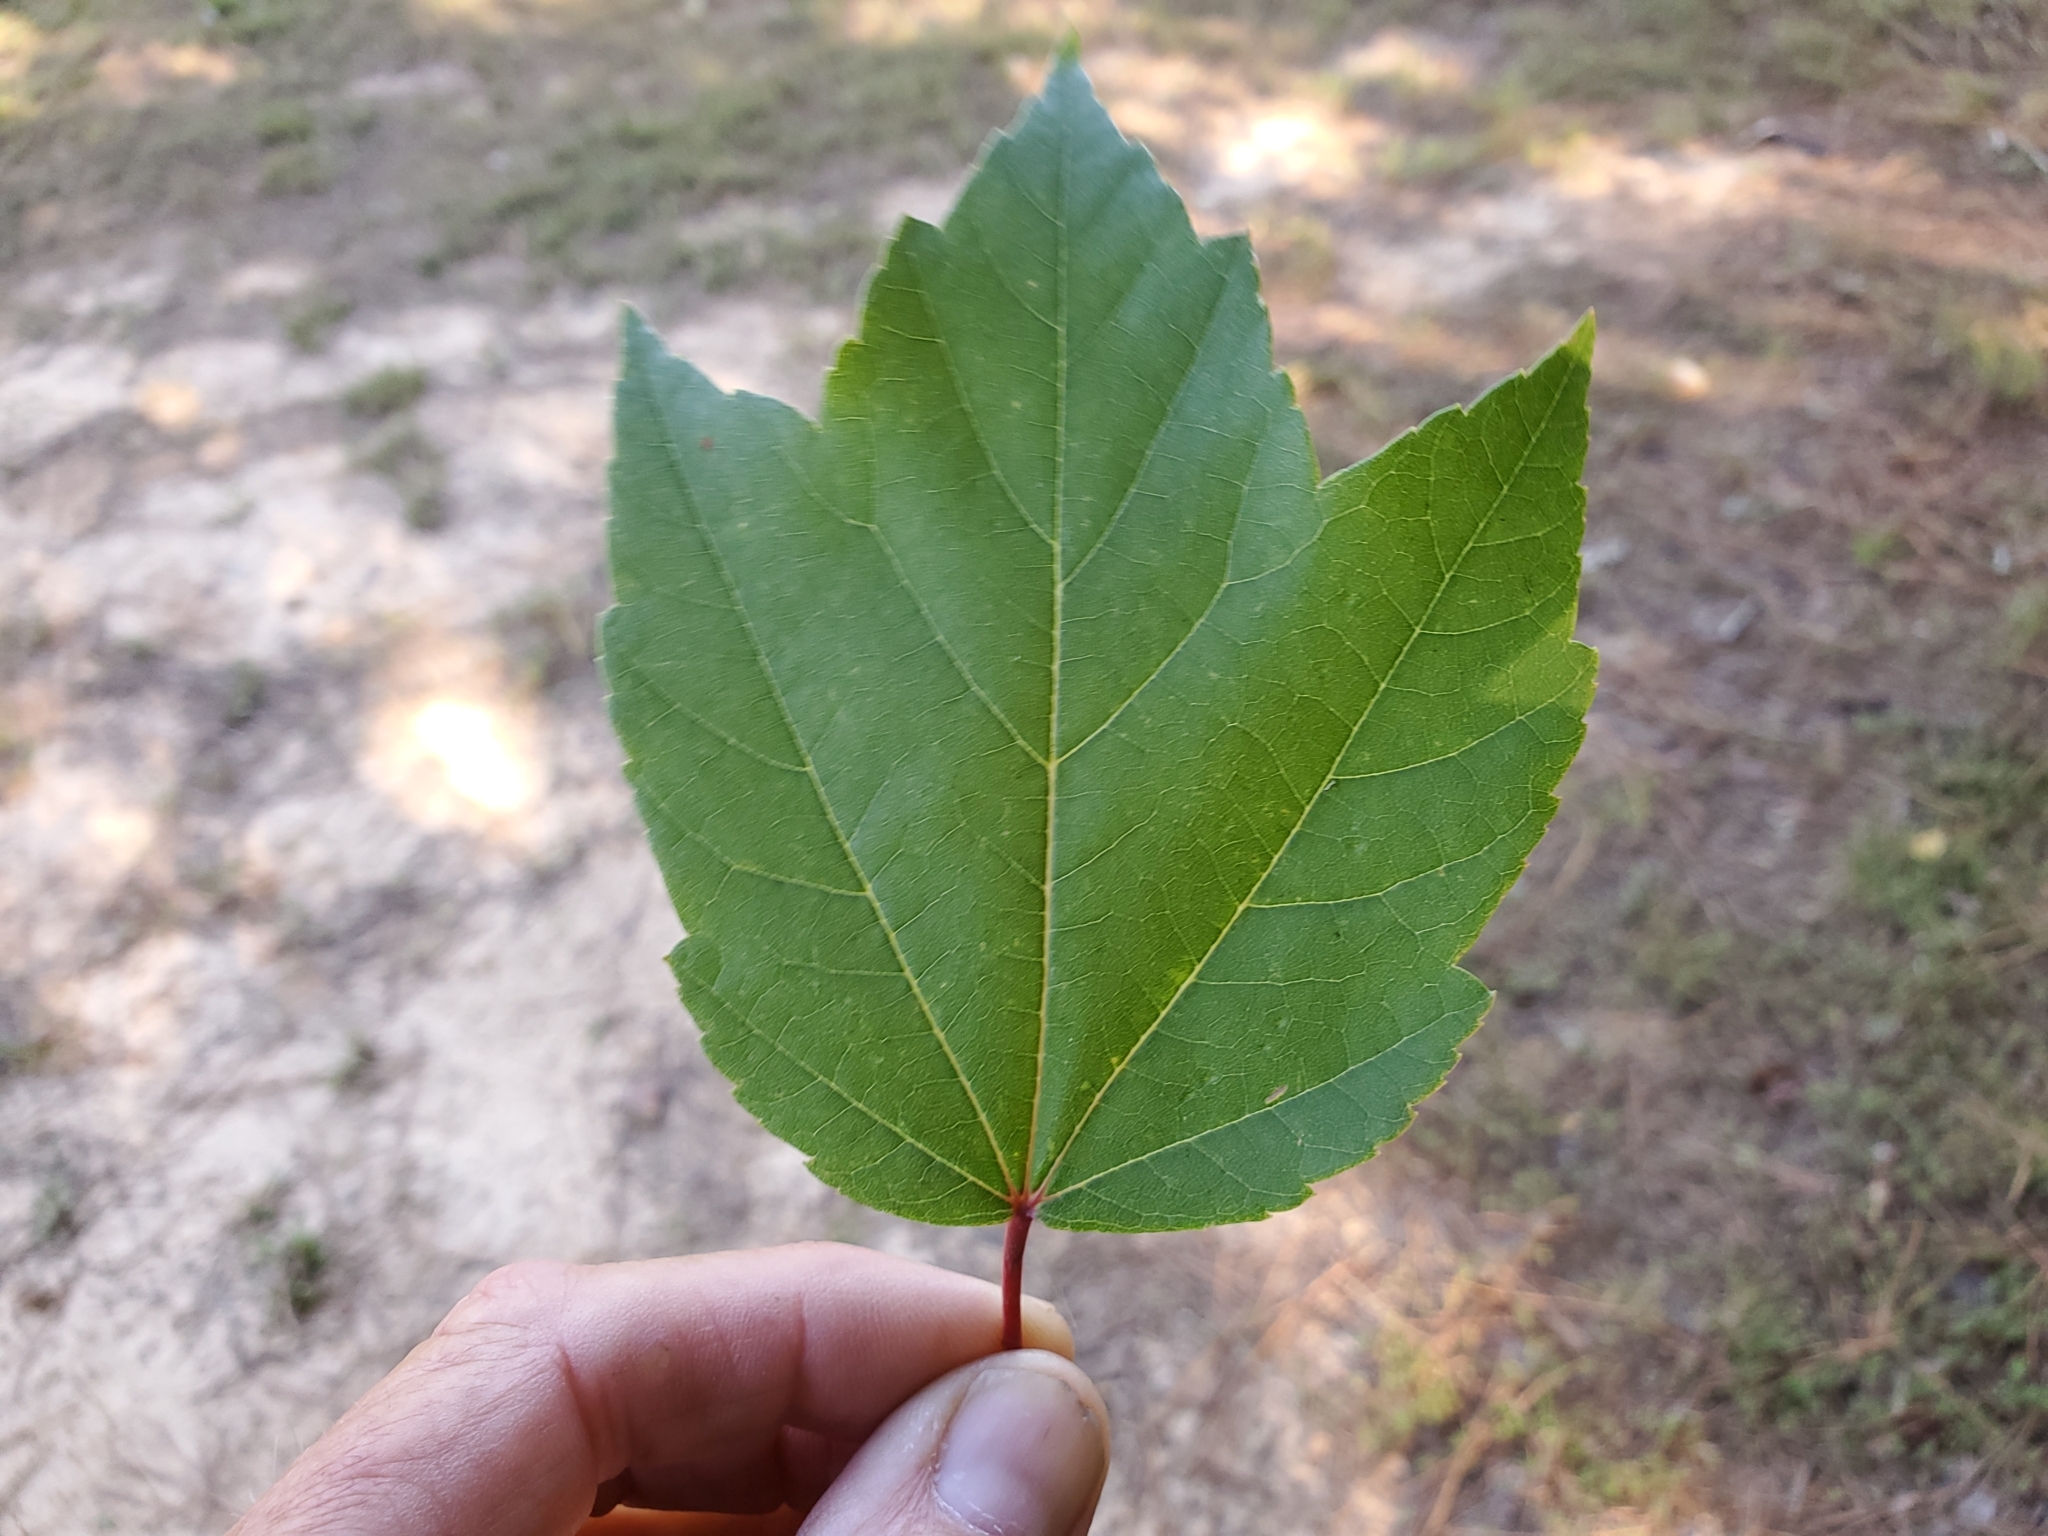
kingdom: Plantae
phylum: Tracheophyta
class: Magnoliopsida
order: Sapindales
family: Sapindaceae
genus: Acer
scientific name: Acer rubrum
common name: Red maple
